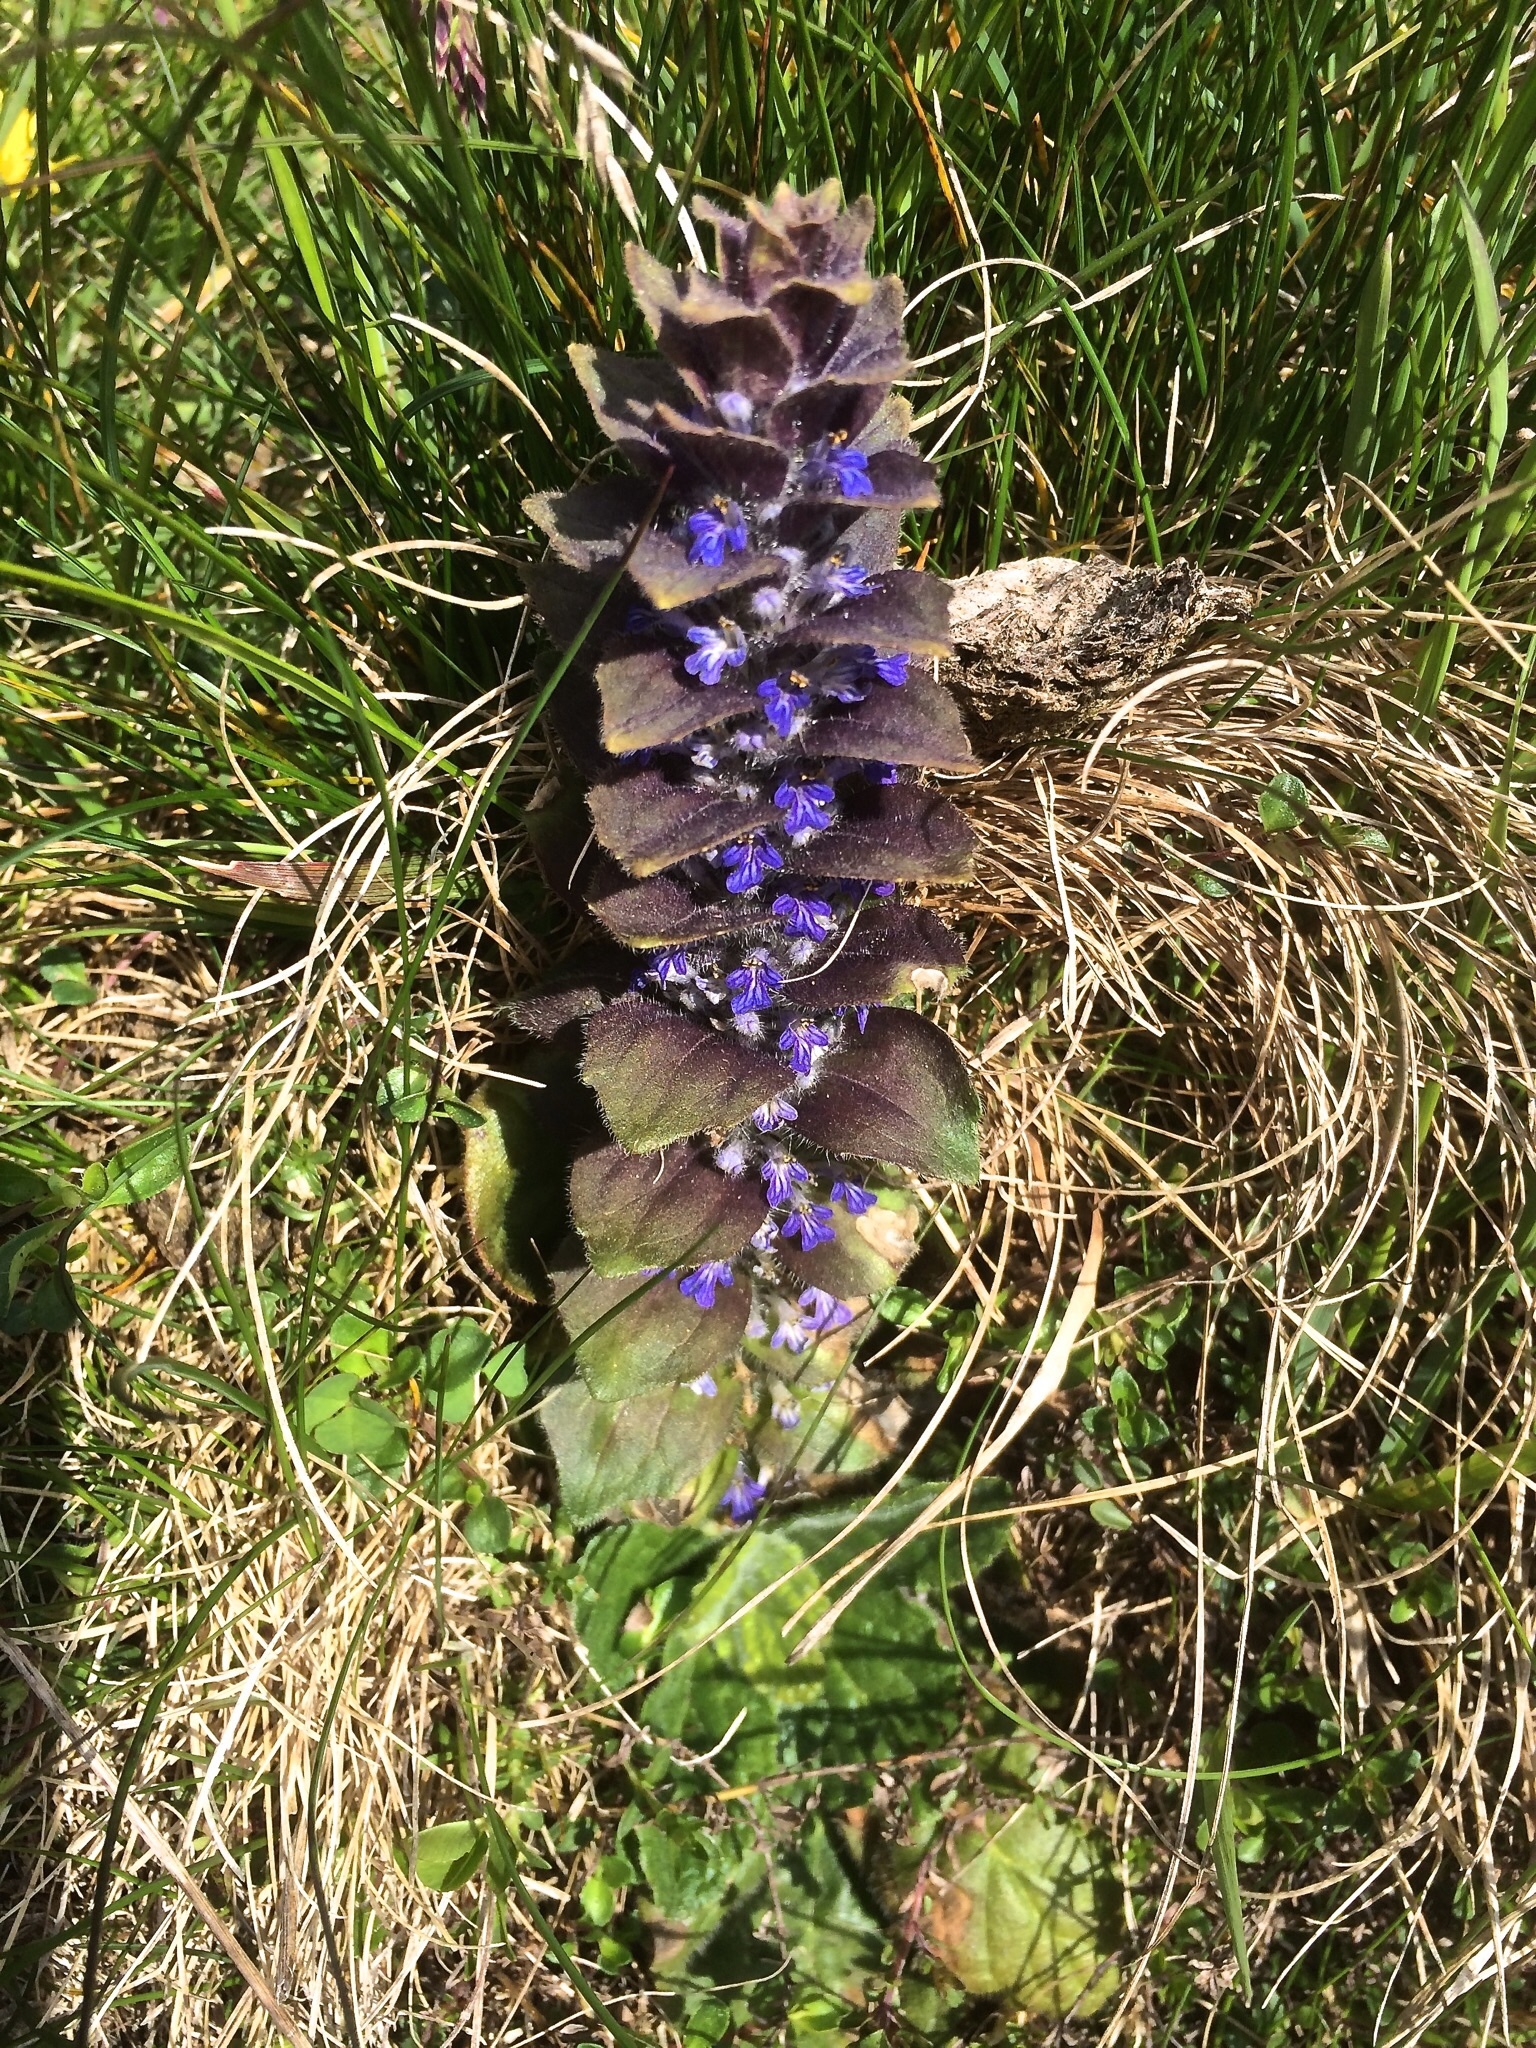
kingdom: Plantae
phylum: Tracheophyta
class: Magnoliopsida
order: Lamiales
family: Lamiaceae
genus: Ajuga
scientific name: Ajuga pyramidalis
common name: Pyramid bugle
